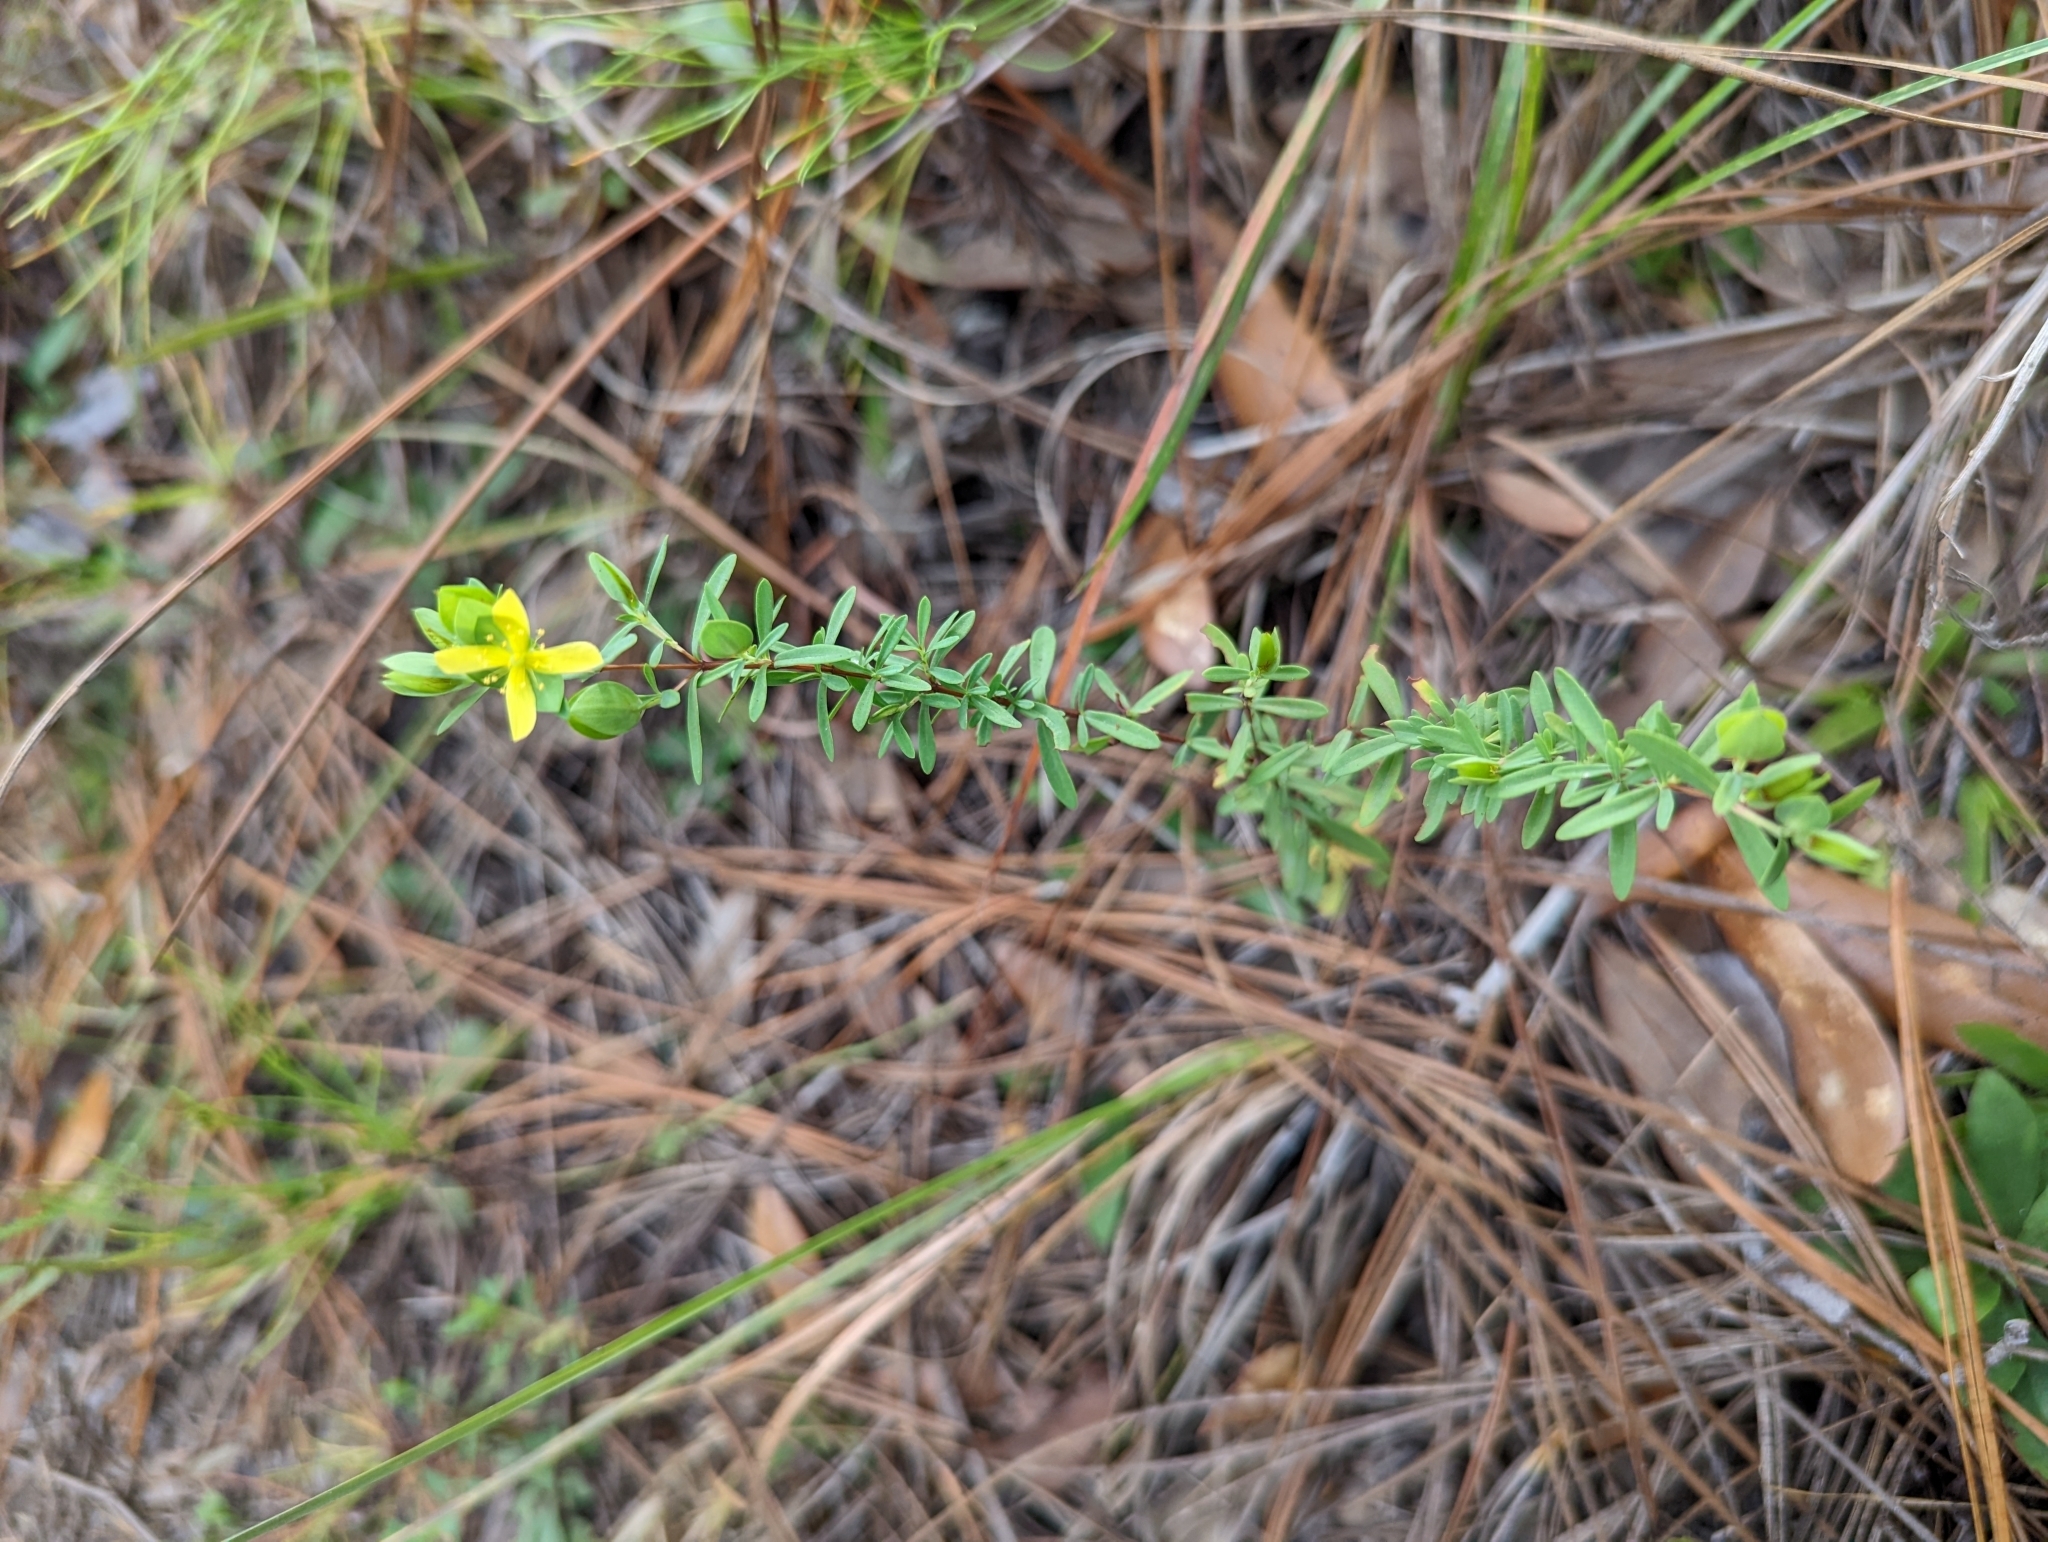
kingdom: Plantae
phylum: Tracheophyta
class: Magnoliopsida
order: Malpighiales
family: Hypericaceae
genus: Hypericum
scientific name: Hypericum hypericoides
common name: St. andrew's cross
